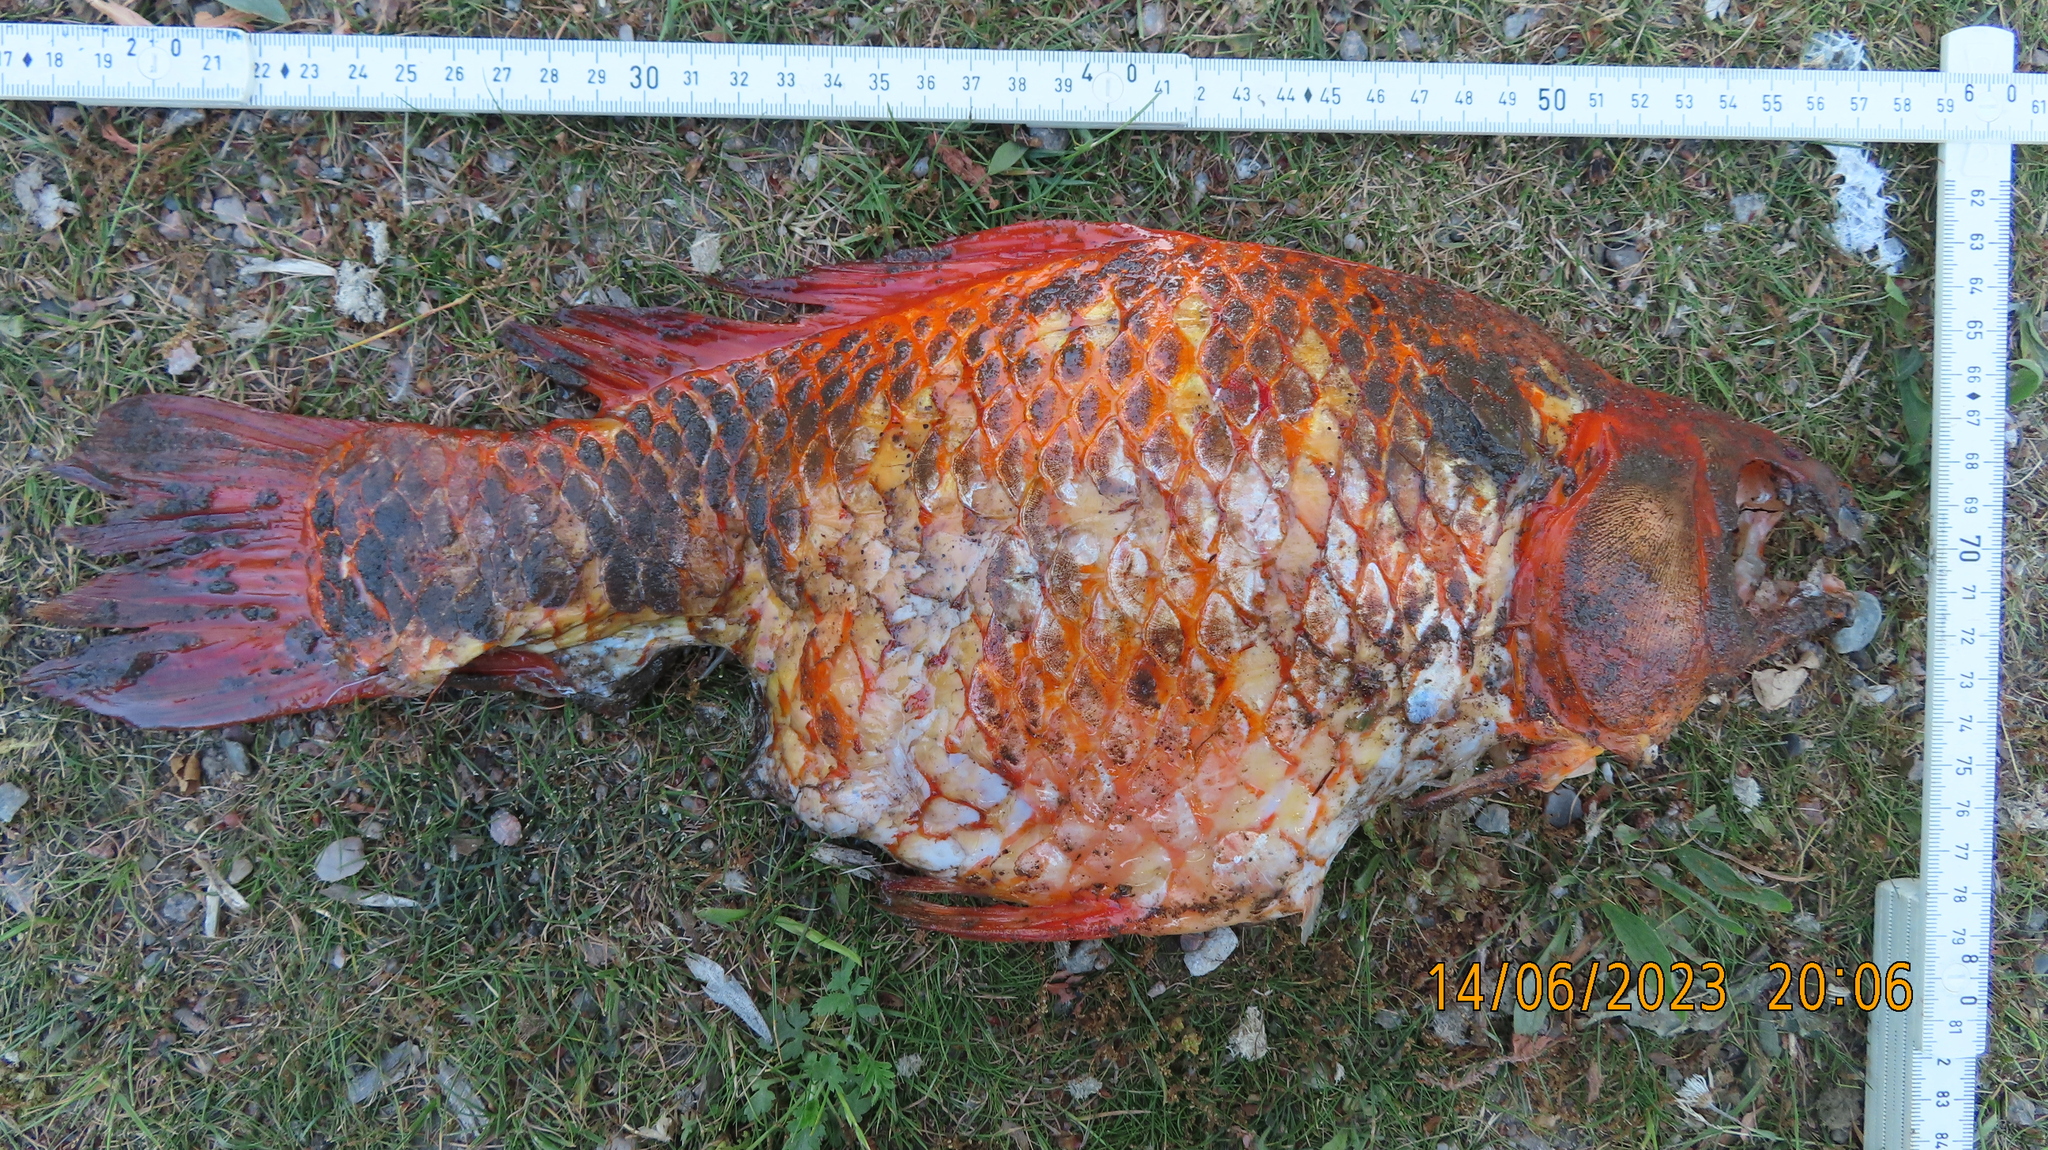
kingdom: Animalia
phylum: Chordata
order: Cypriniformes
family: Cyprinidae
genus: Carassius
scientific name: Carassius auratus
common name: Goldfish
